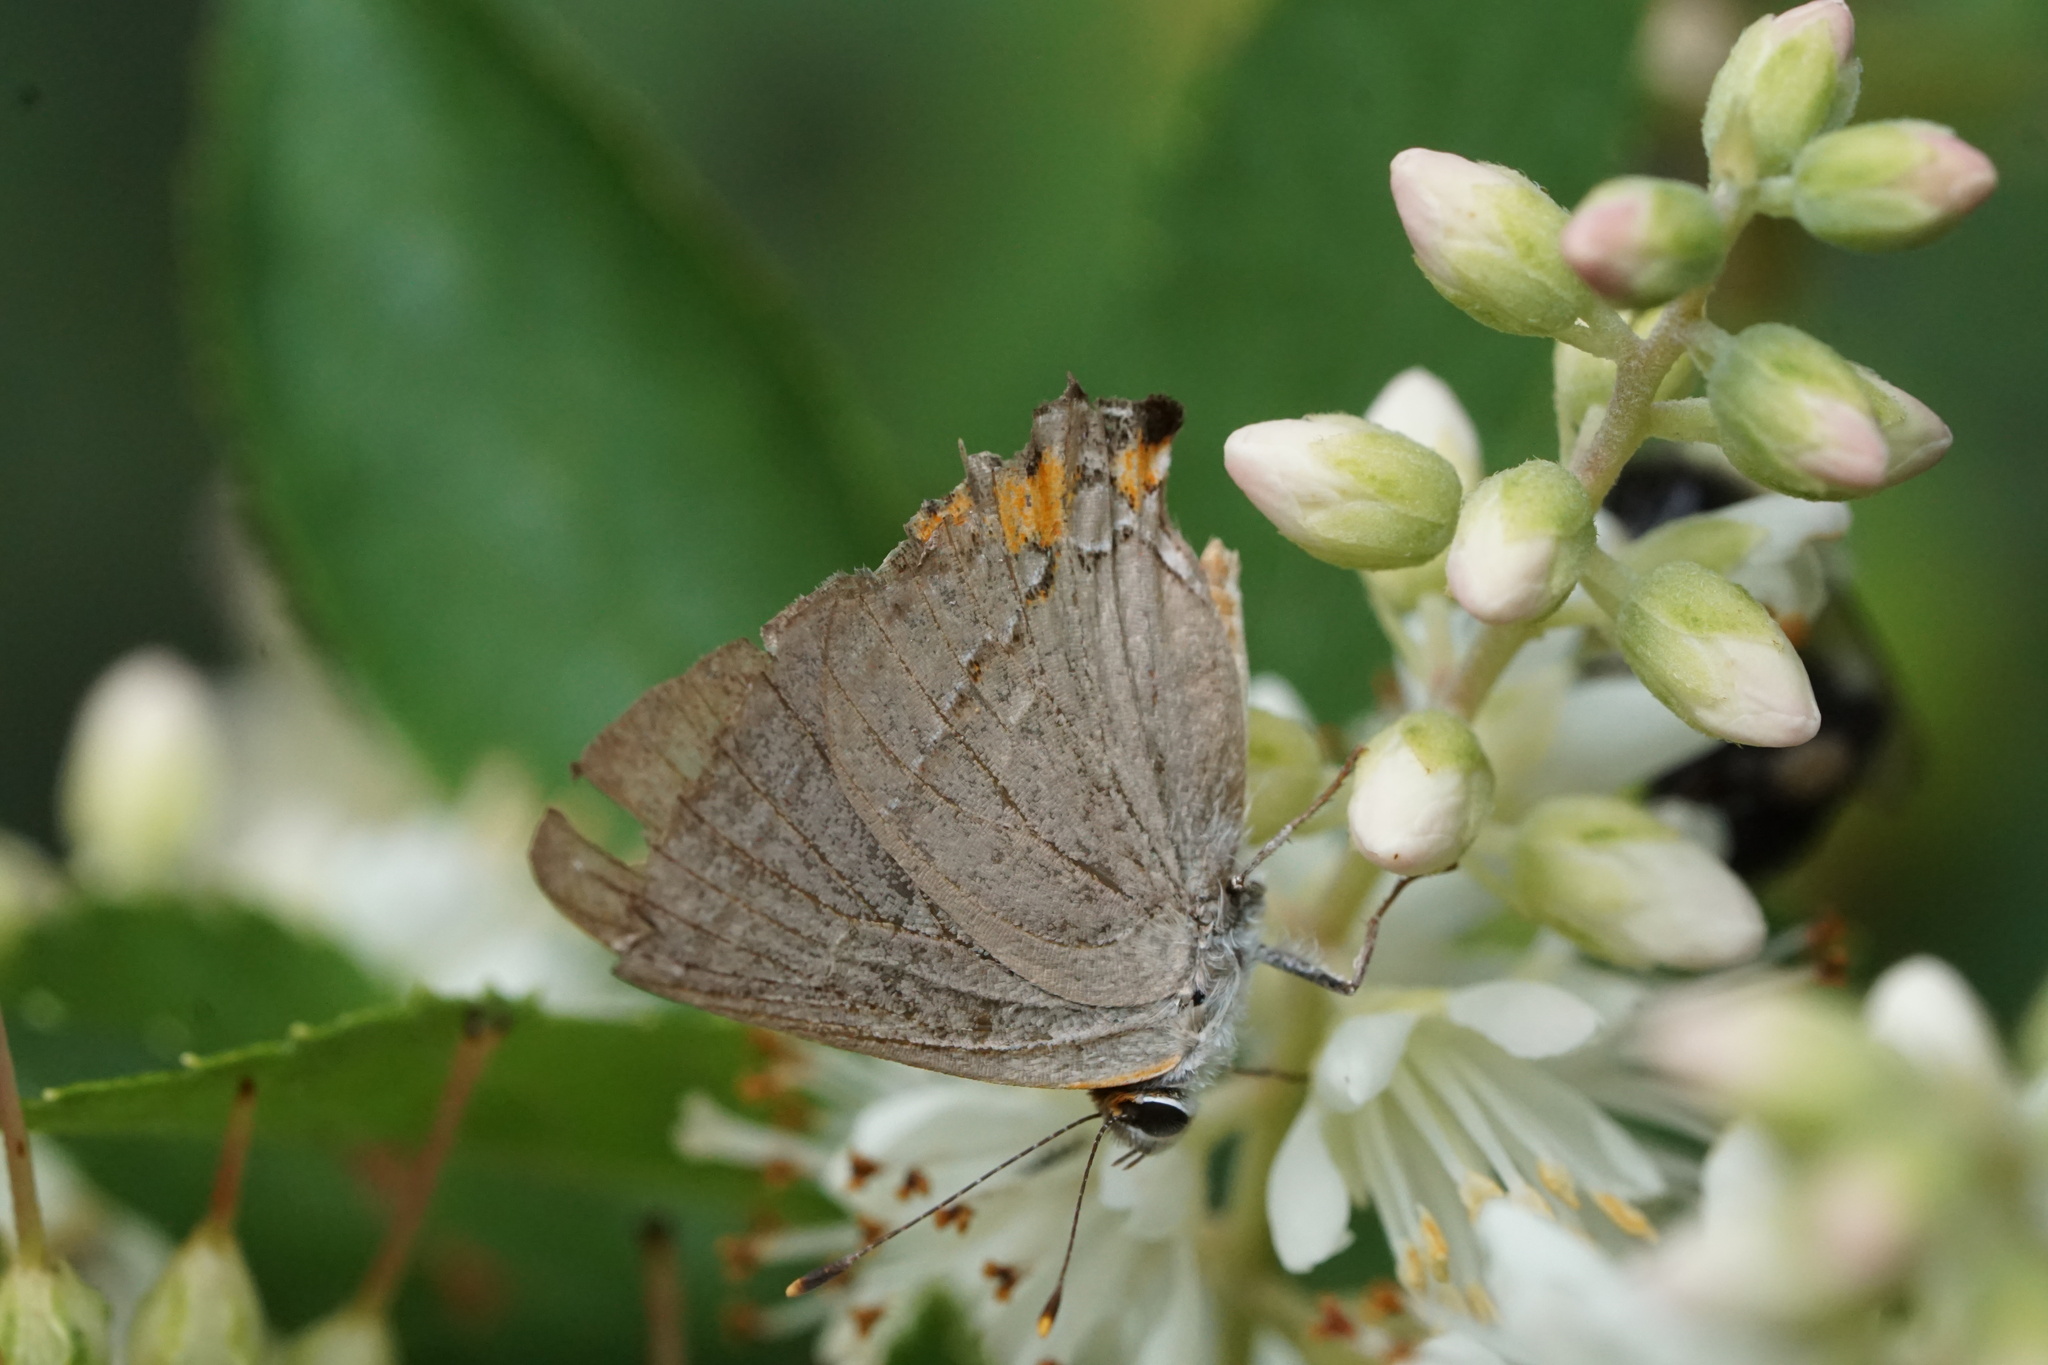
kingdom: Animalia
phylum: Arthropoda
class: Insecta
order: Lepidoptera
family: Lycaenidae
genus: Strymon
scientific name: Strymon melinus
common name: Gray hairstreak
